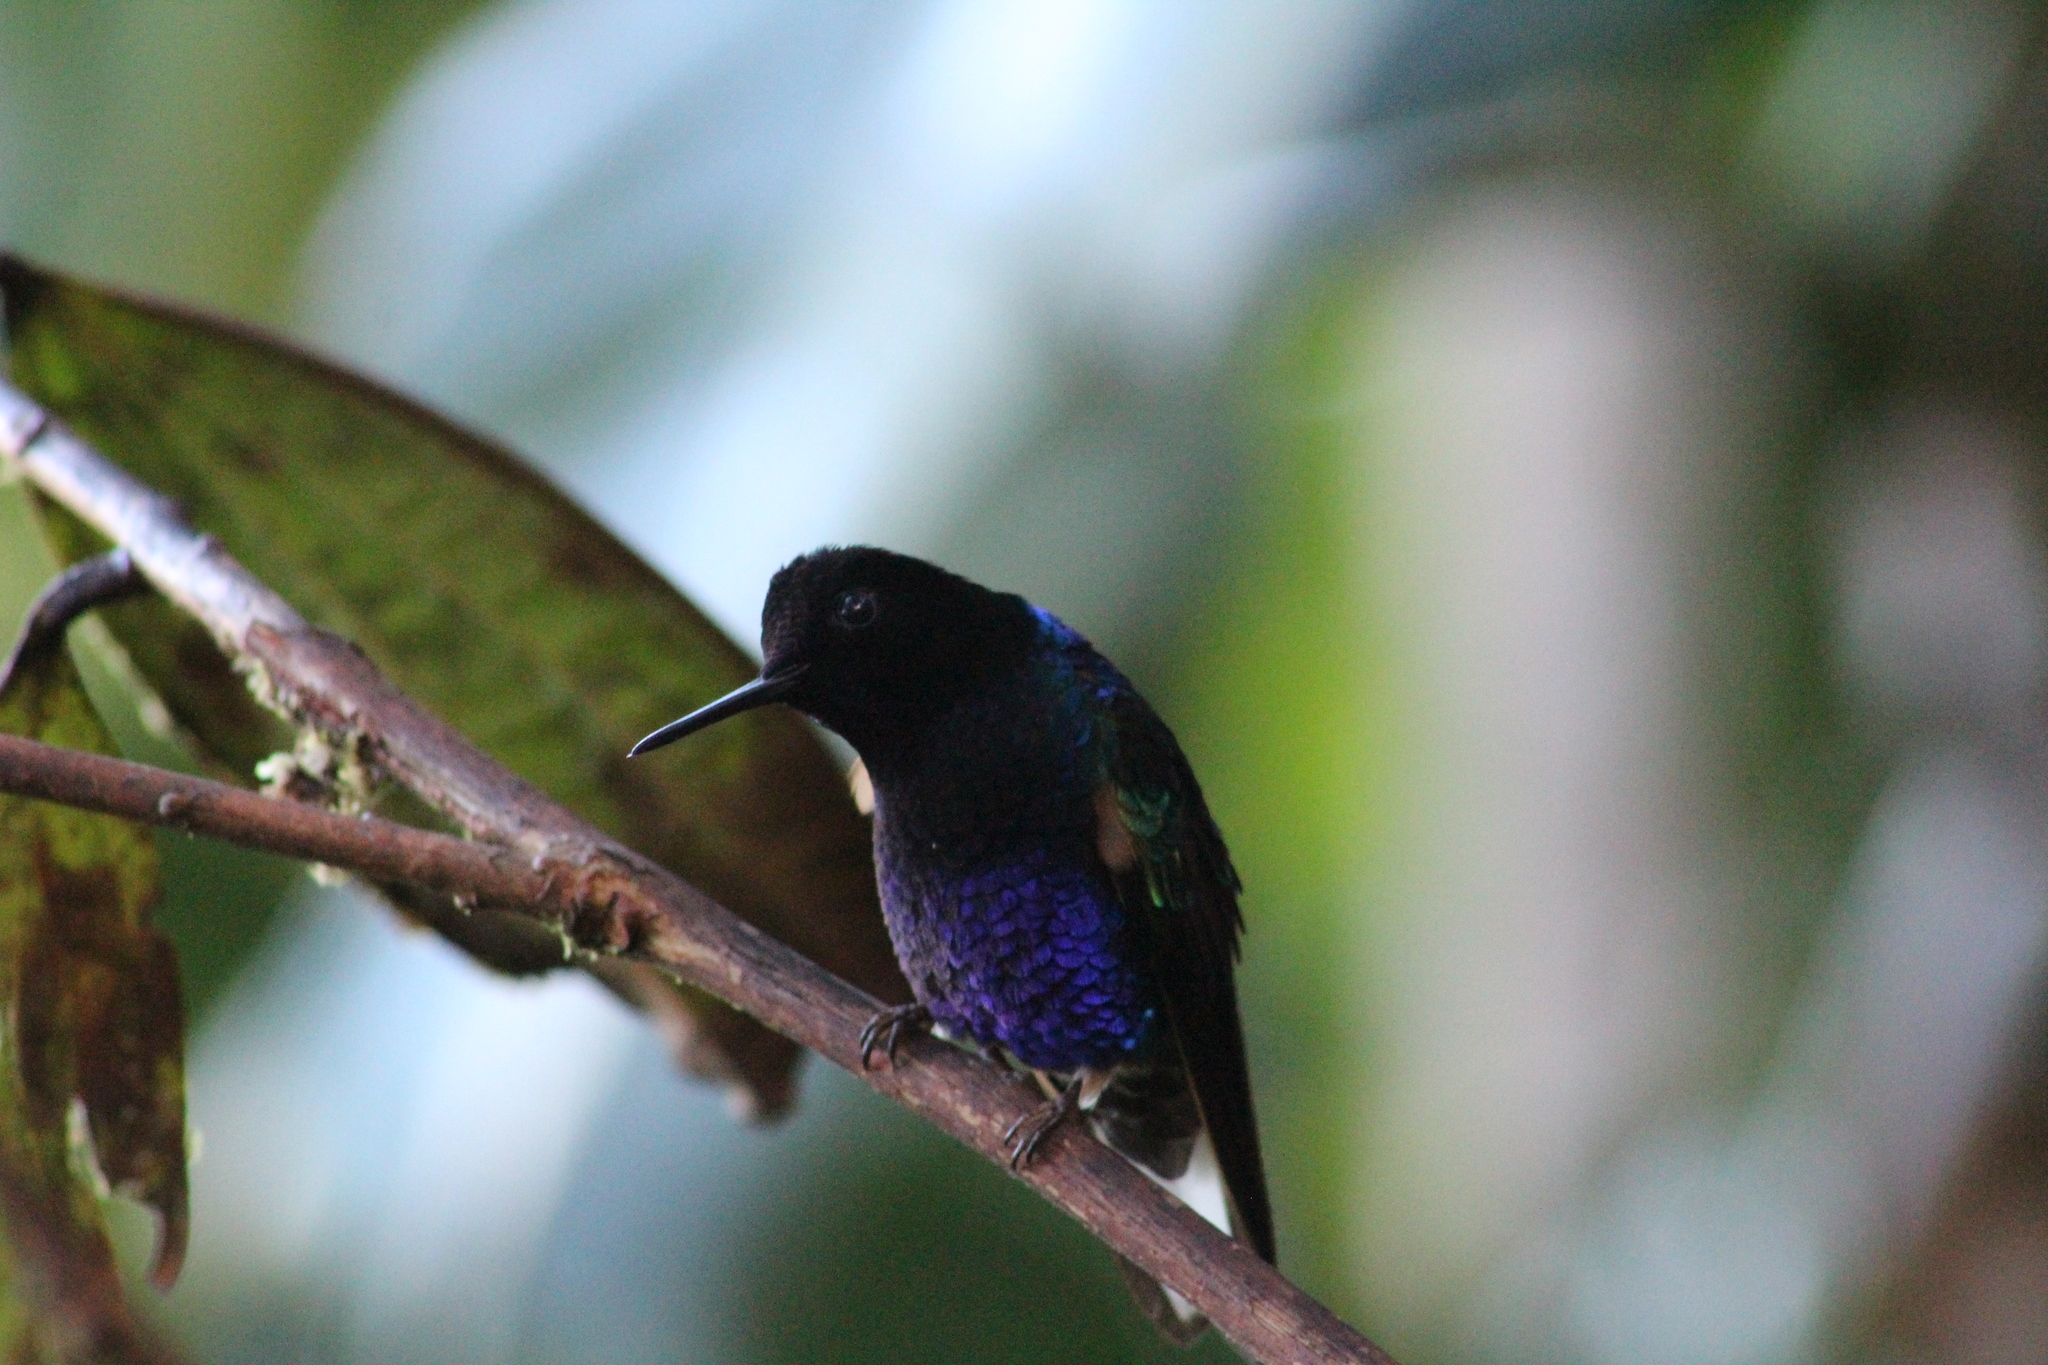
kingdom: Animalia
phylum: Chordata
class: Aves
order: Apodiformes
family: Trochilidae
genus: Boissonneaua
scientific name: Boissonneaua jardini
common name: Velvet-purple coronet
